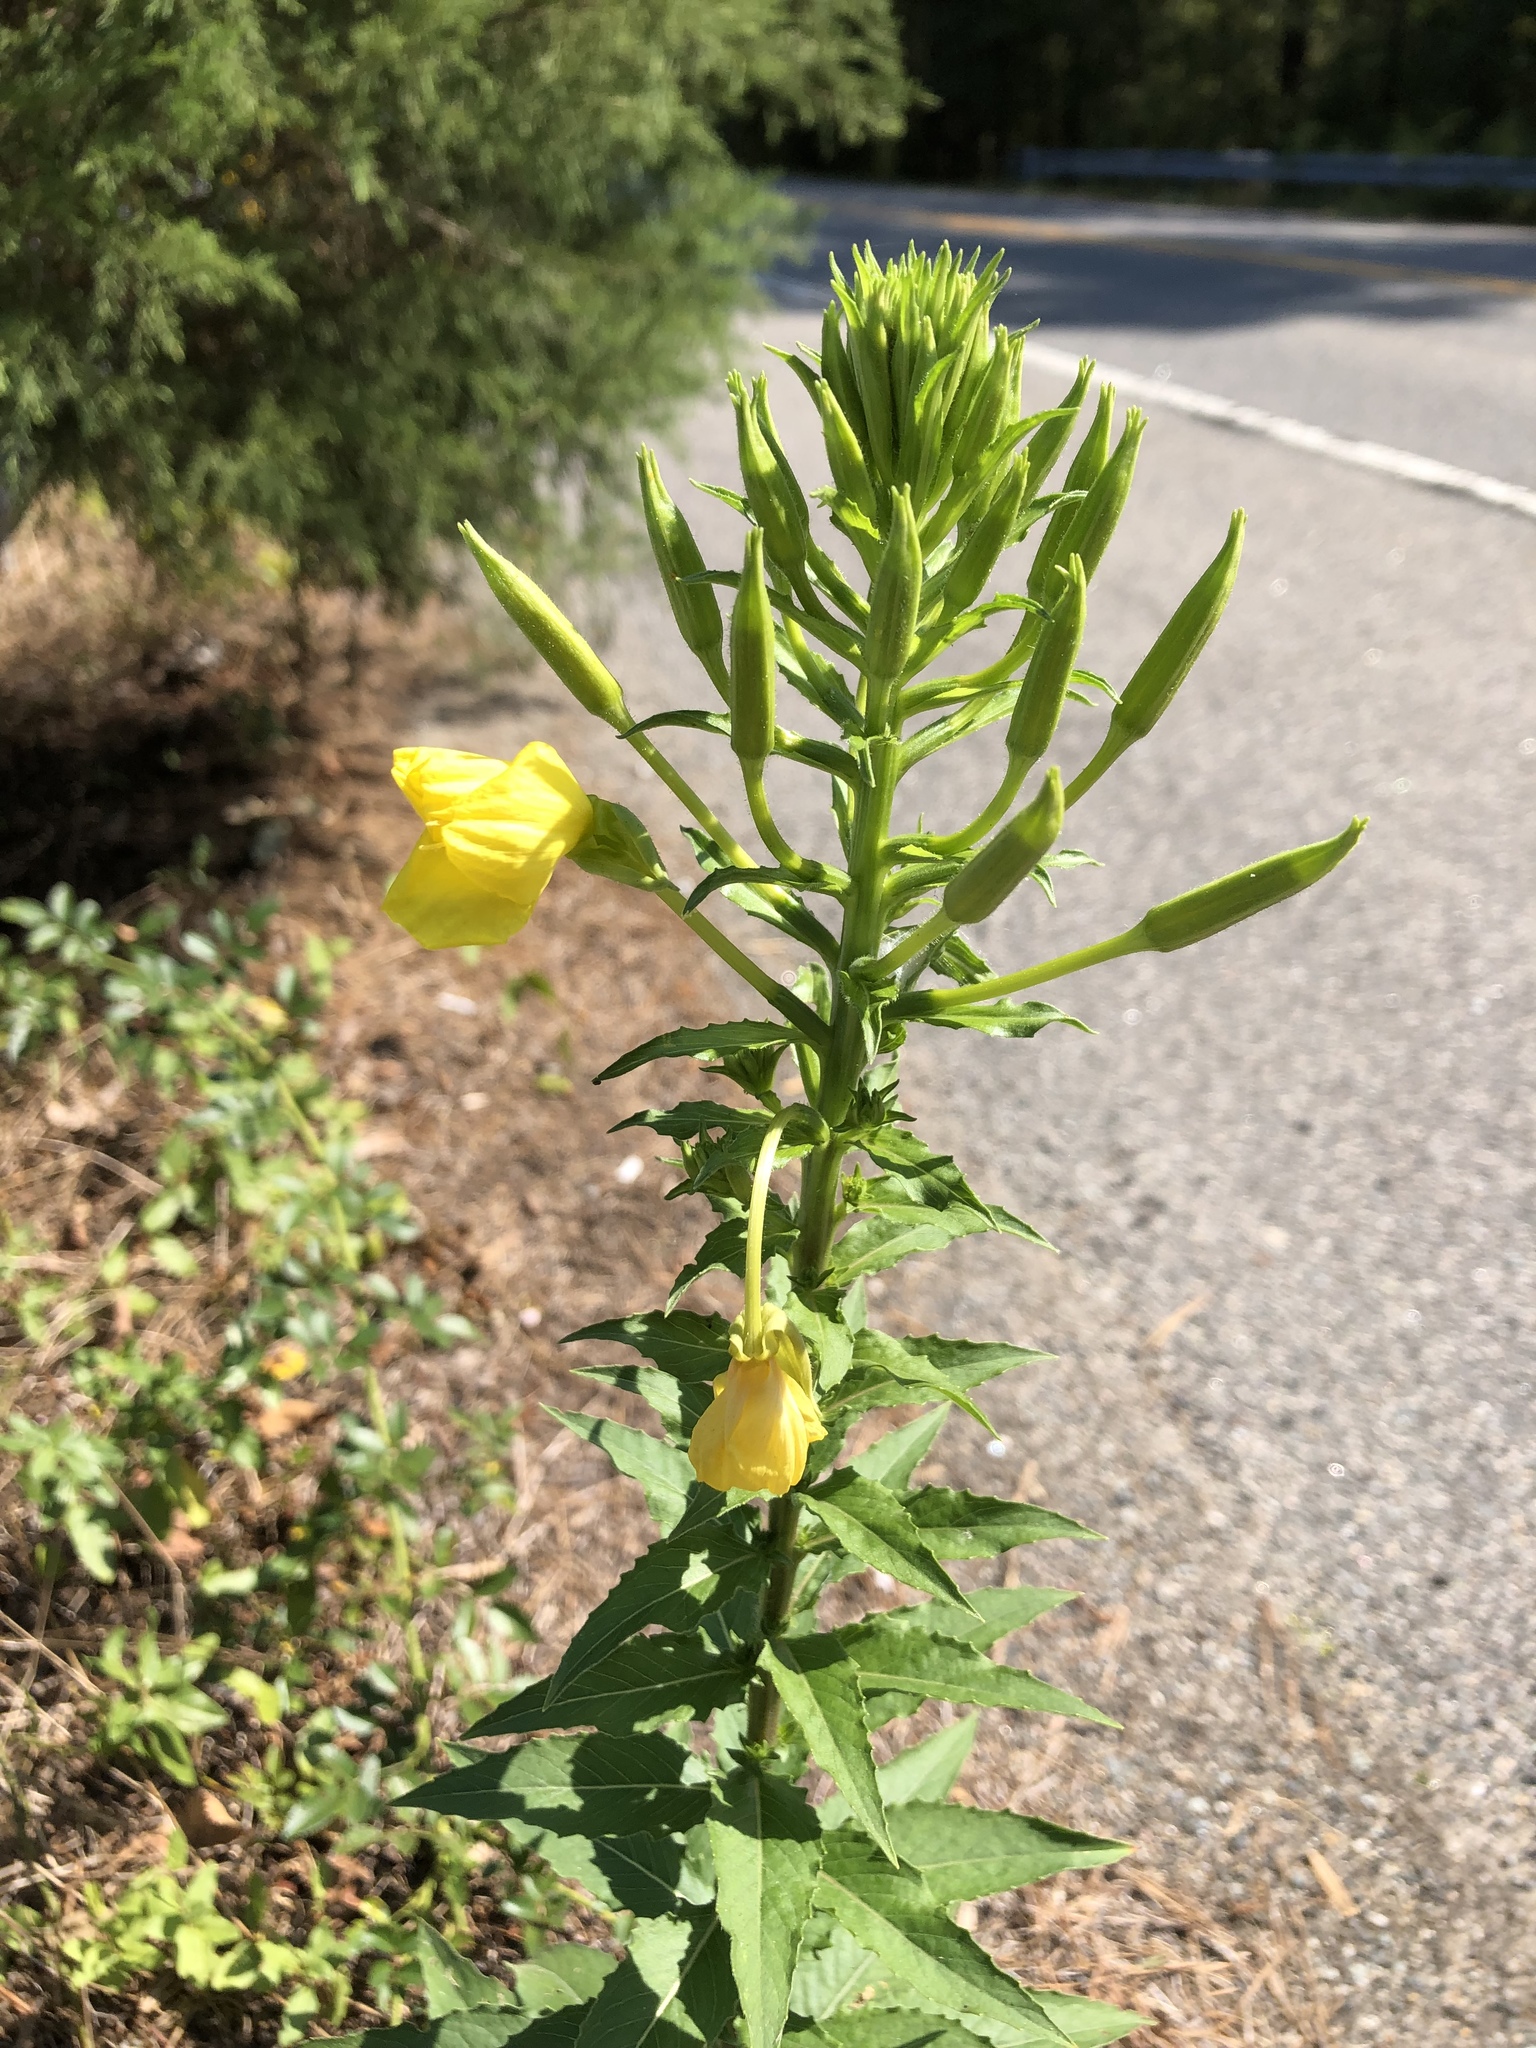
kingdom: Plantae
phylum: Tracheophyta
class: Magnoliopsida
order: Myrtales
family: Onagraceae
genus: Oenothera
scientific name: Oenothera biennis
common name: Common evening-primrose
